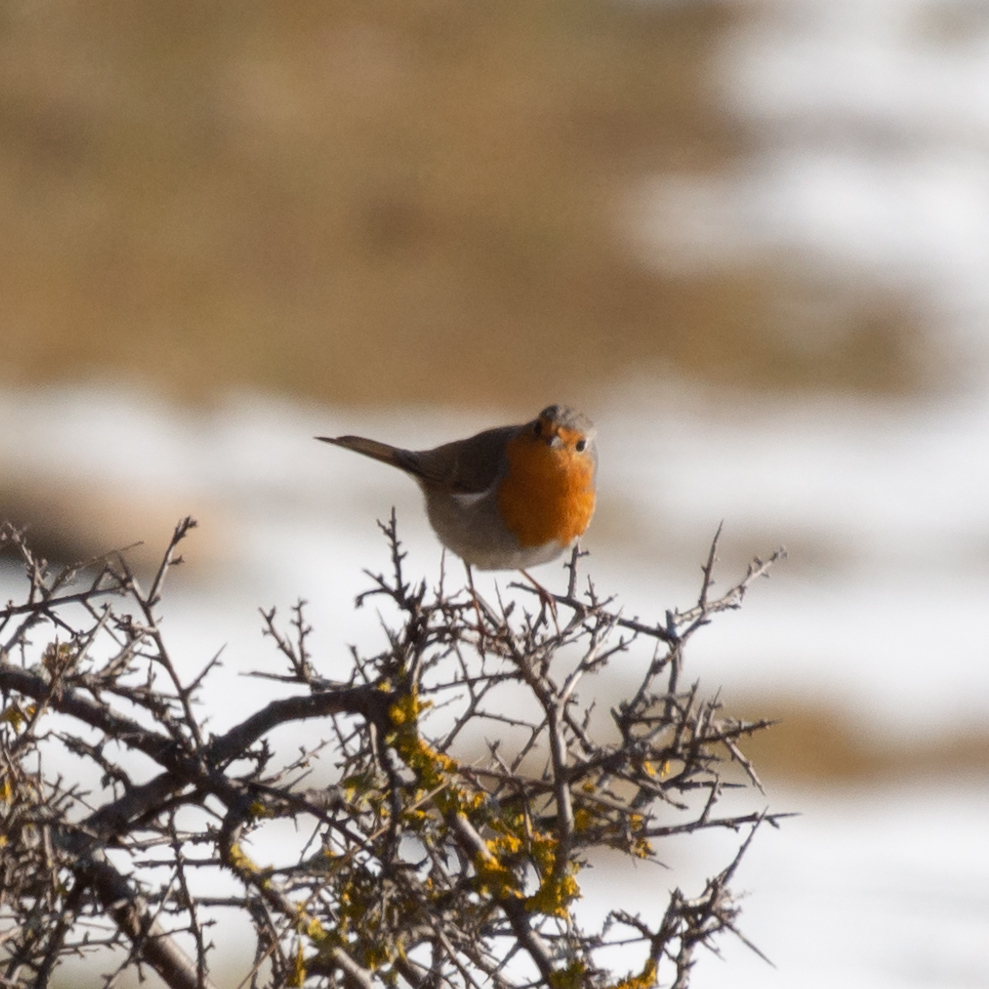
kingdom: Animalia
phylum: Chordata
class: Aves
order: Passeriformes
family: Muscicapidae
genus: Erithacus
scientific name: Erithacus rubecula
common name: European robin
